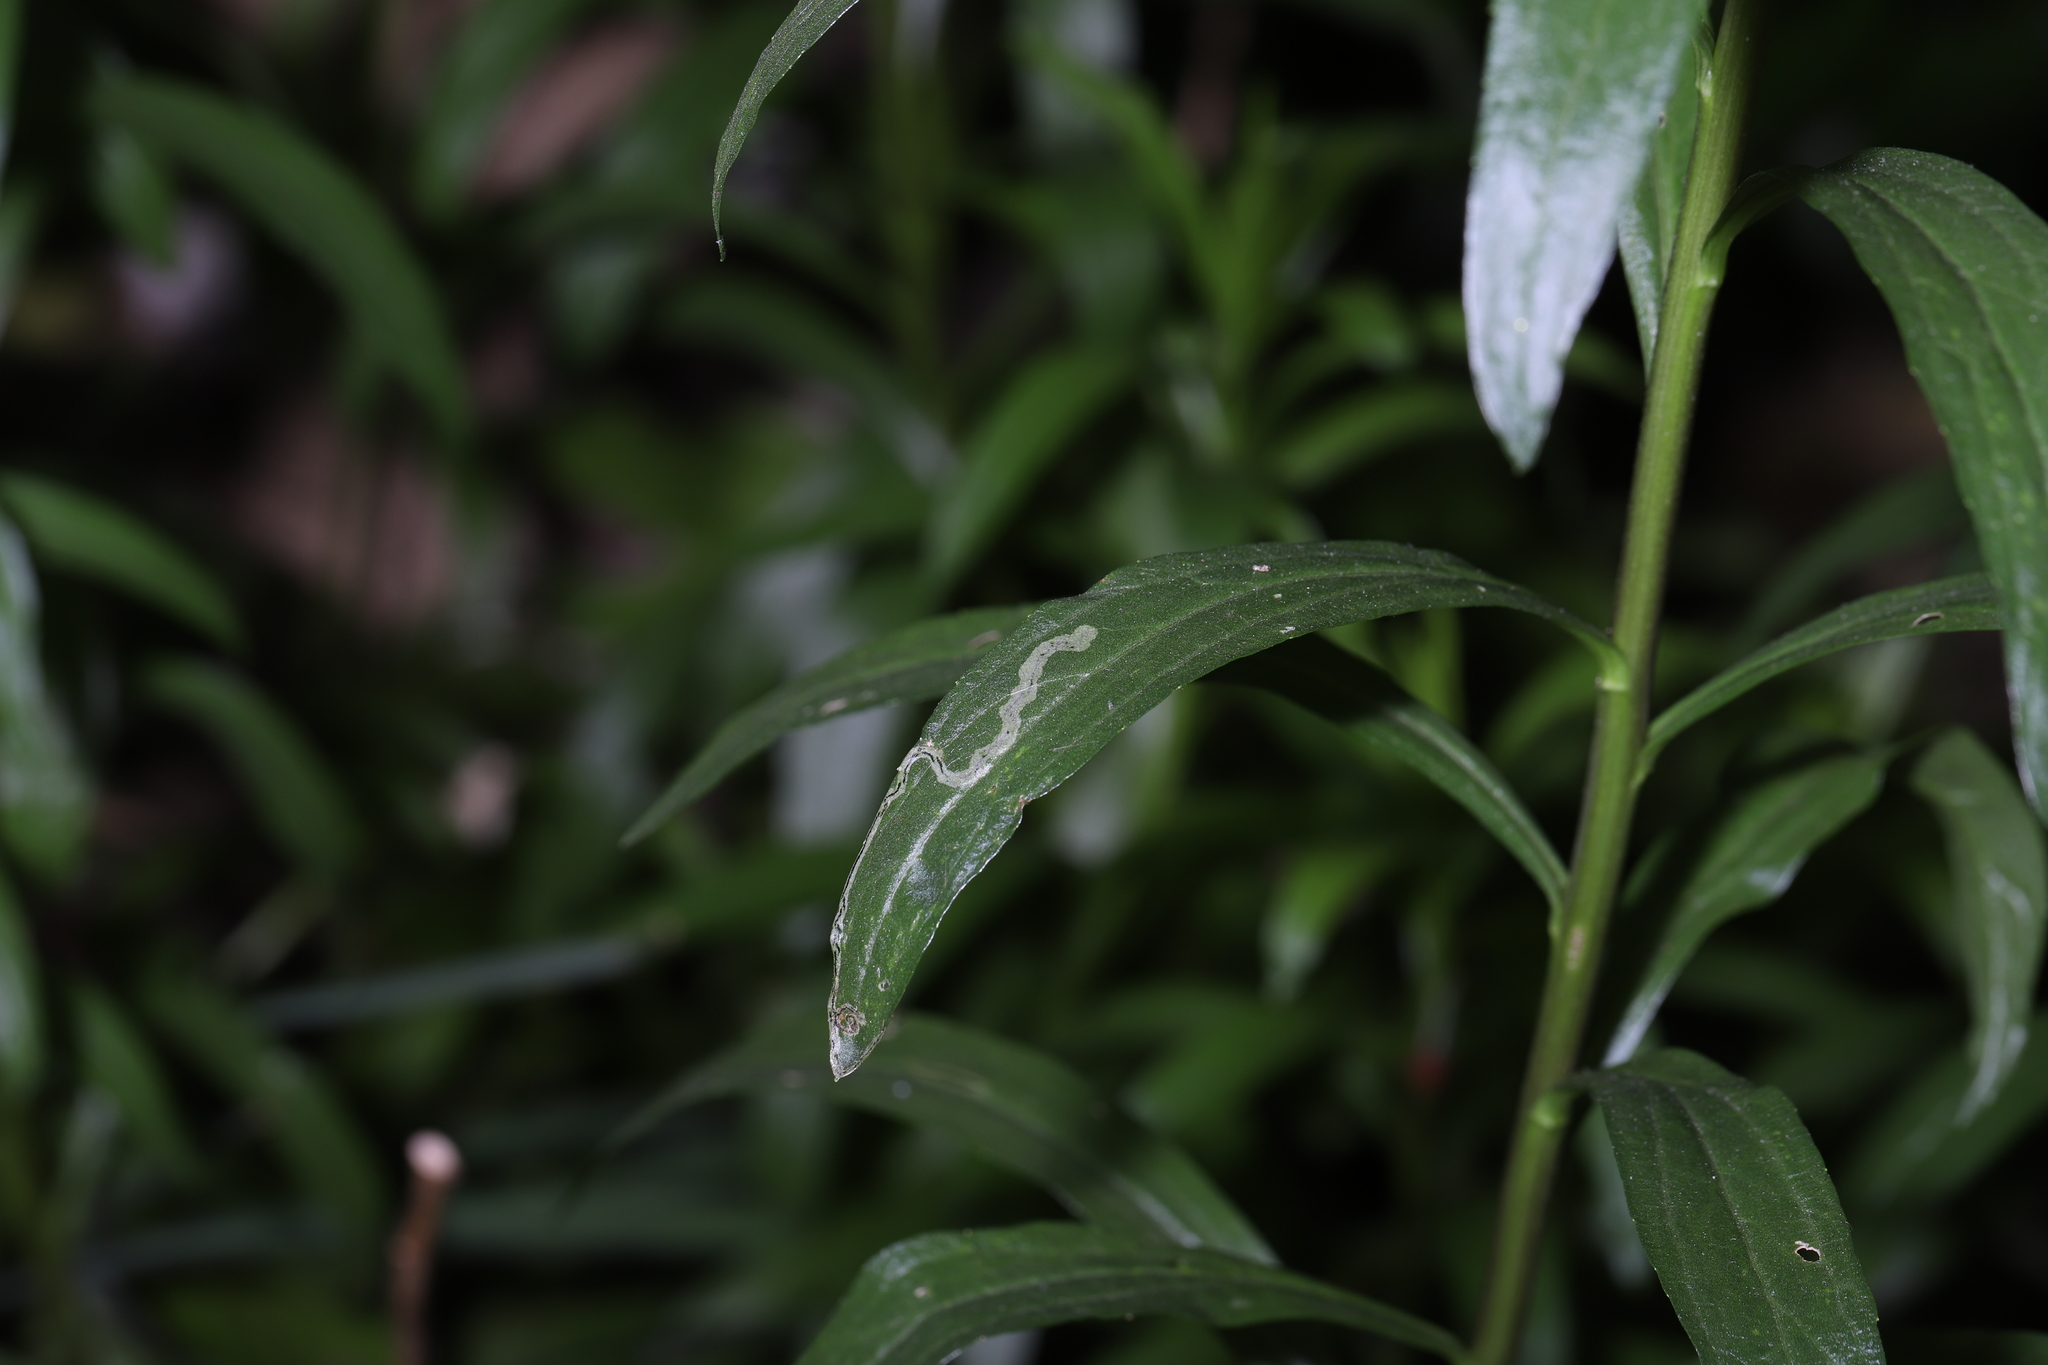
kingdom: Animalia
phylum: Arthropoda
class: Insecta
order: Diptera
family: Agromyzidae
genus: Liriomyza
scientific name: Liriomyza eupatorii
